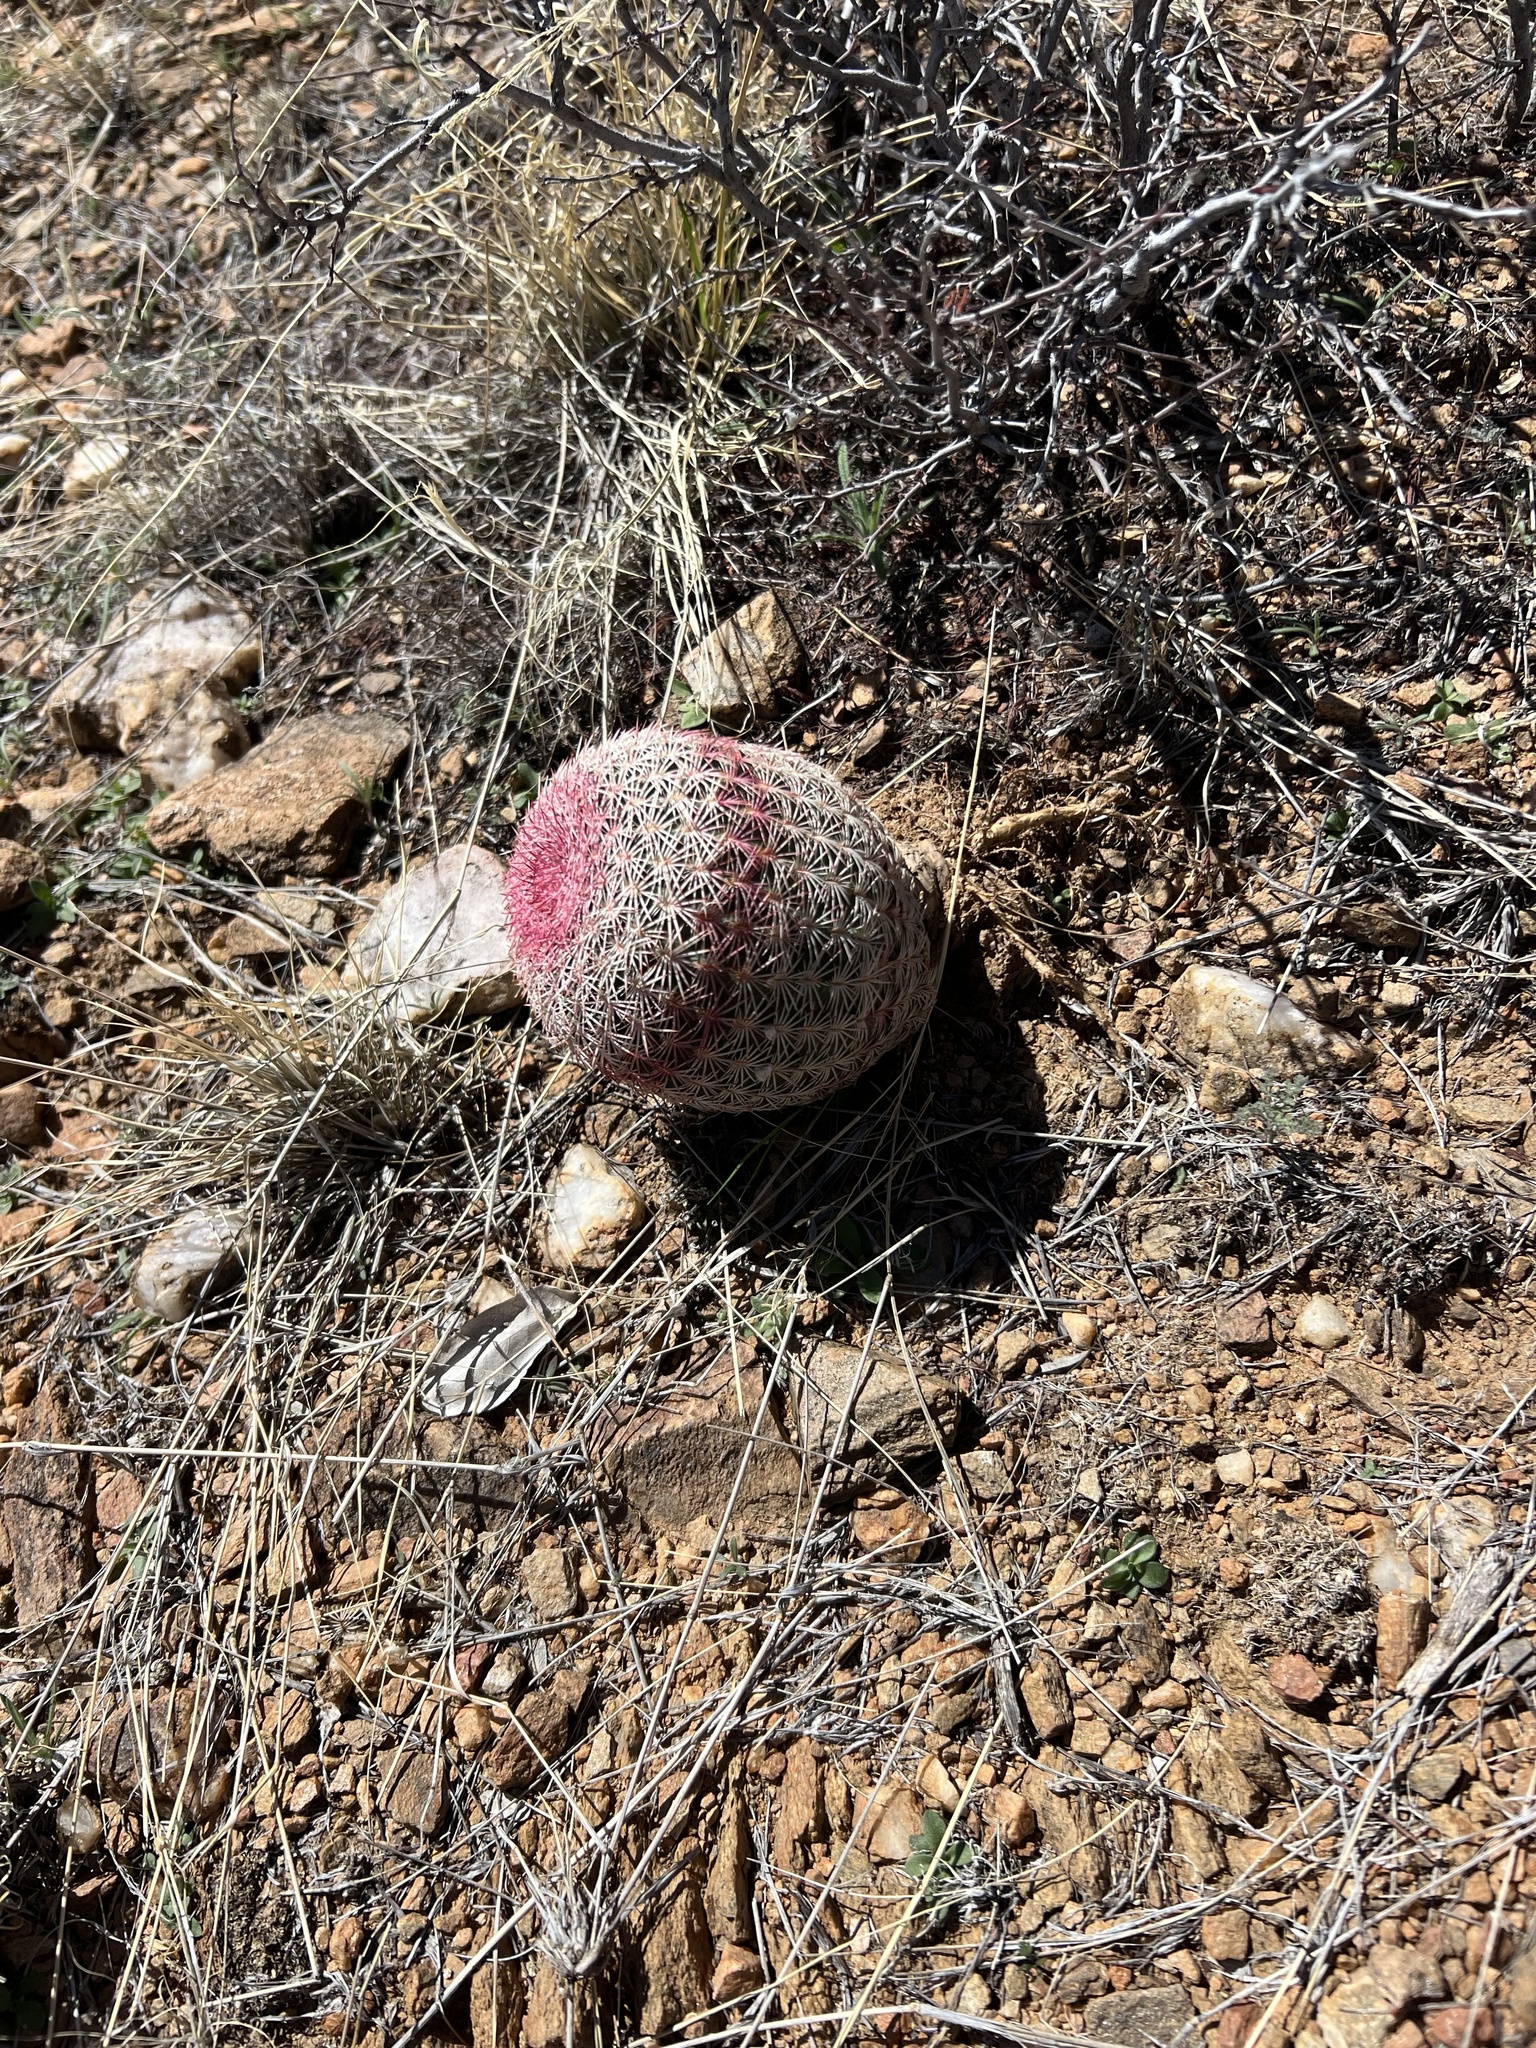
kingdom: Plantae
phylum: Tracheophyta
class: Magnoliopsida
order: Caryophyllales
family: Cactaceae
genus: Echinocereus
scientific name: Echinocereus rigidissimus
